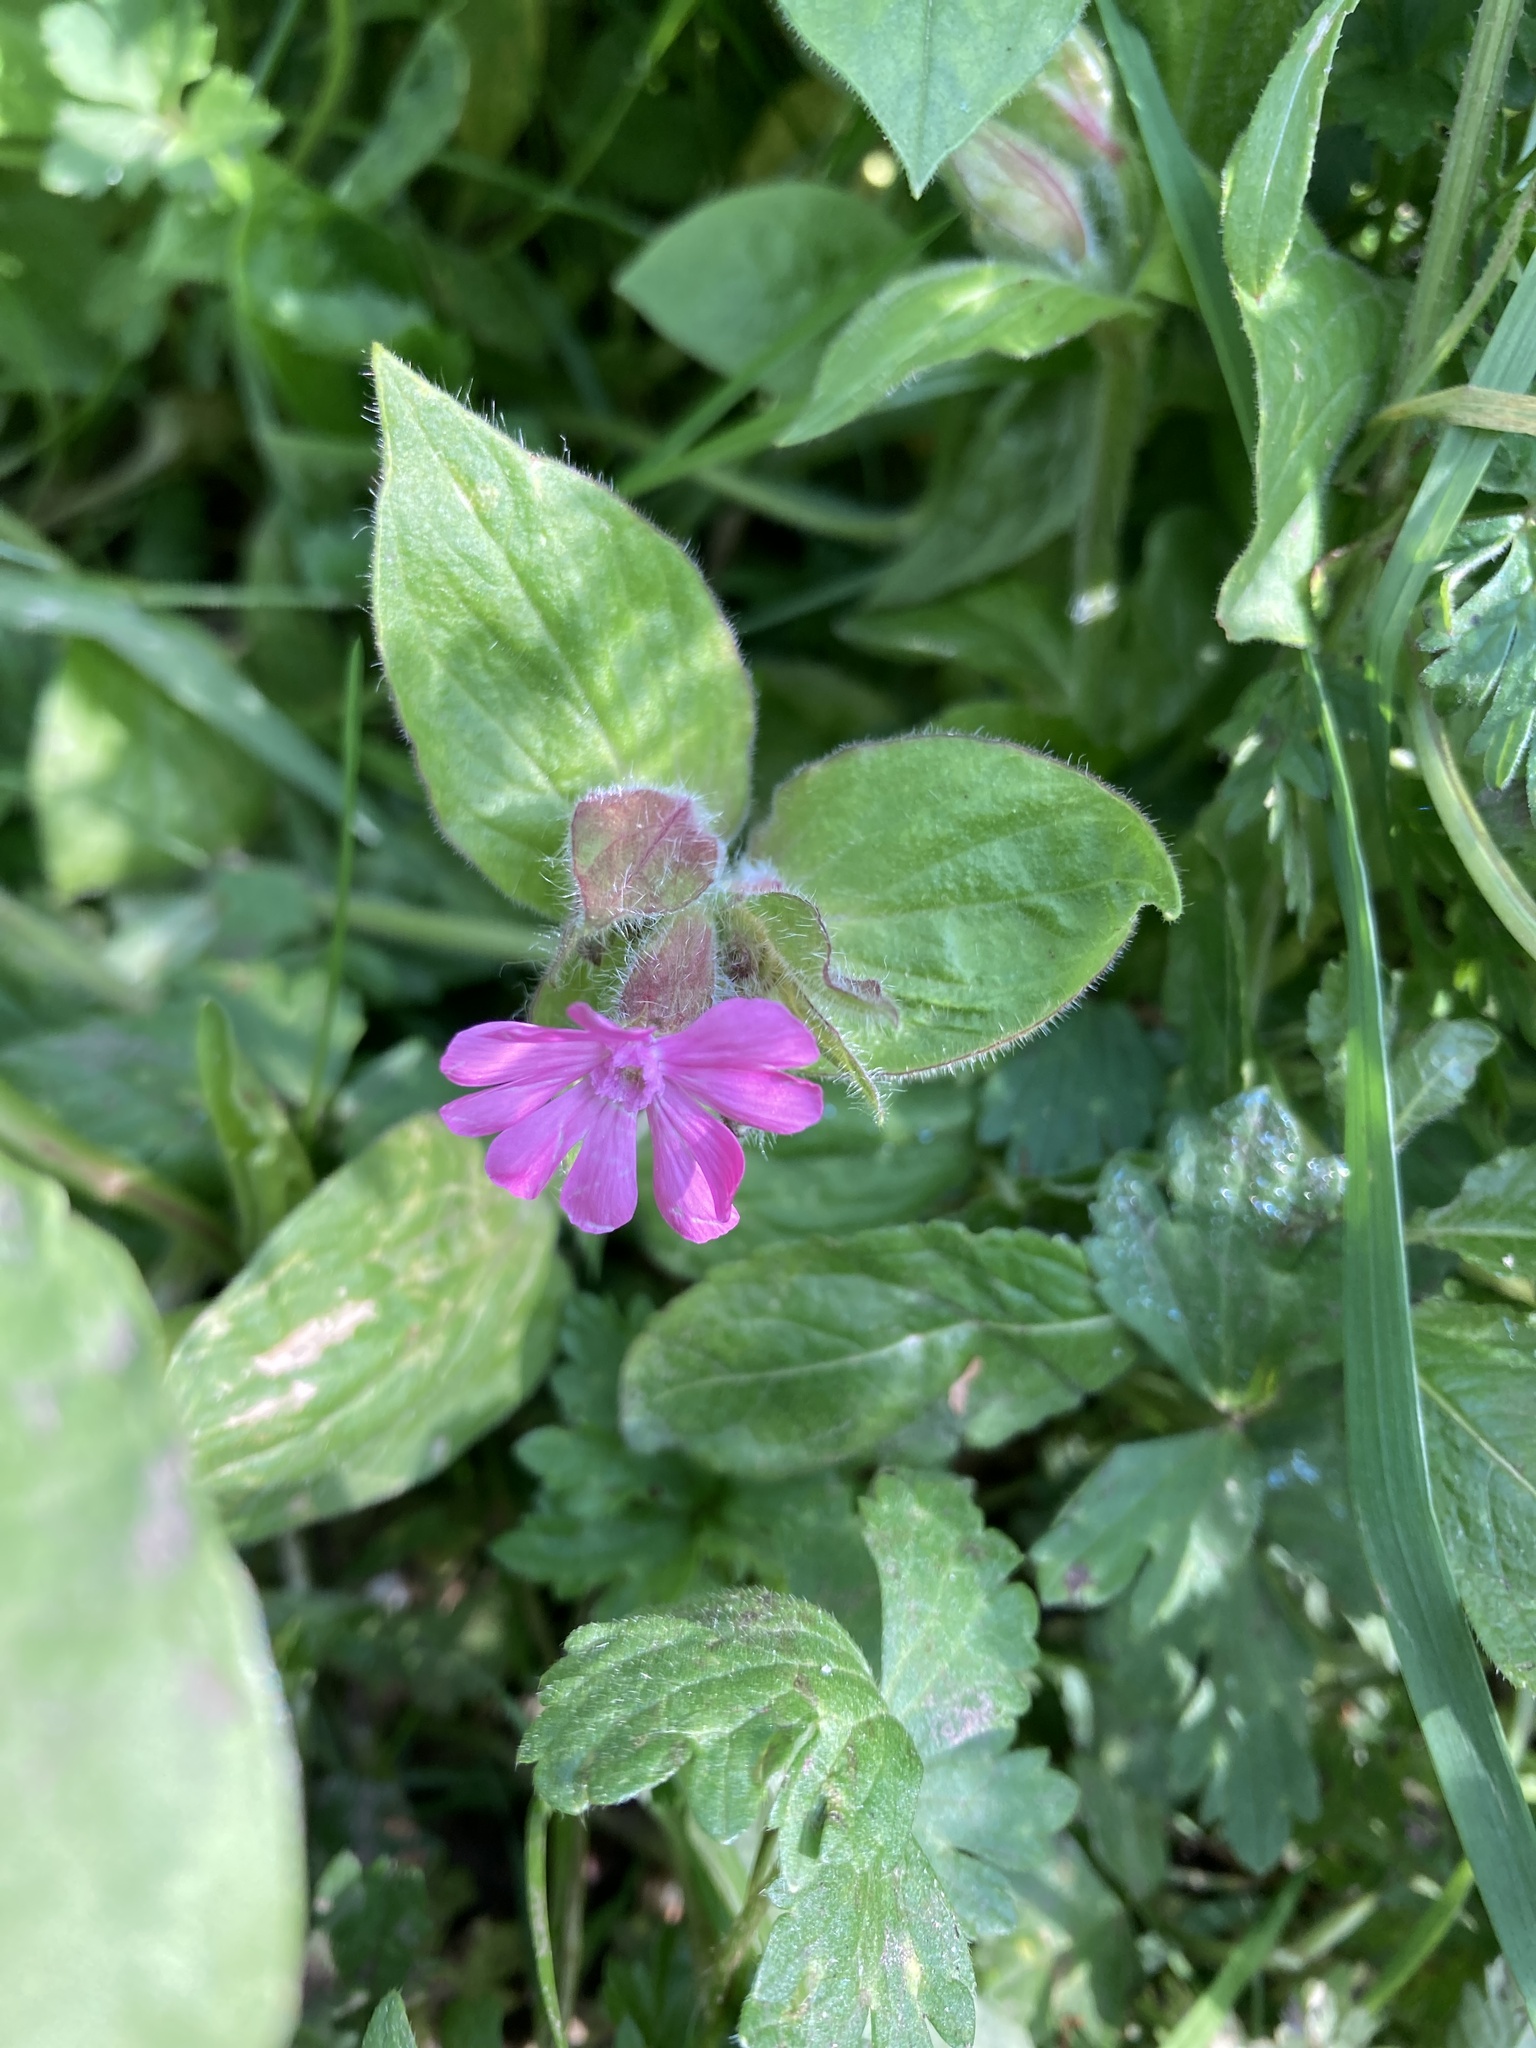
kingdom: Plantae
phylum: Tracheophyta
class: Magnoliopsida
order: Caryophyllales
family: Caryophyllaceae
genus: Silene
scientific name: Silene dioica
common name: Red campion
